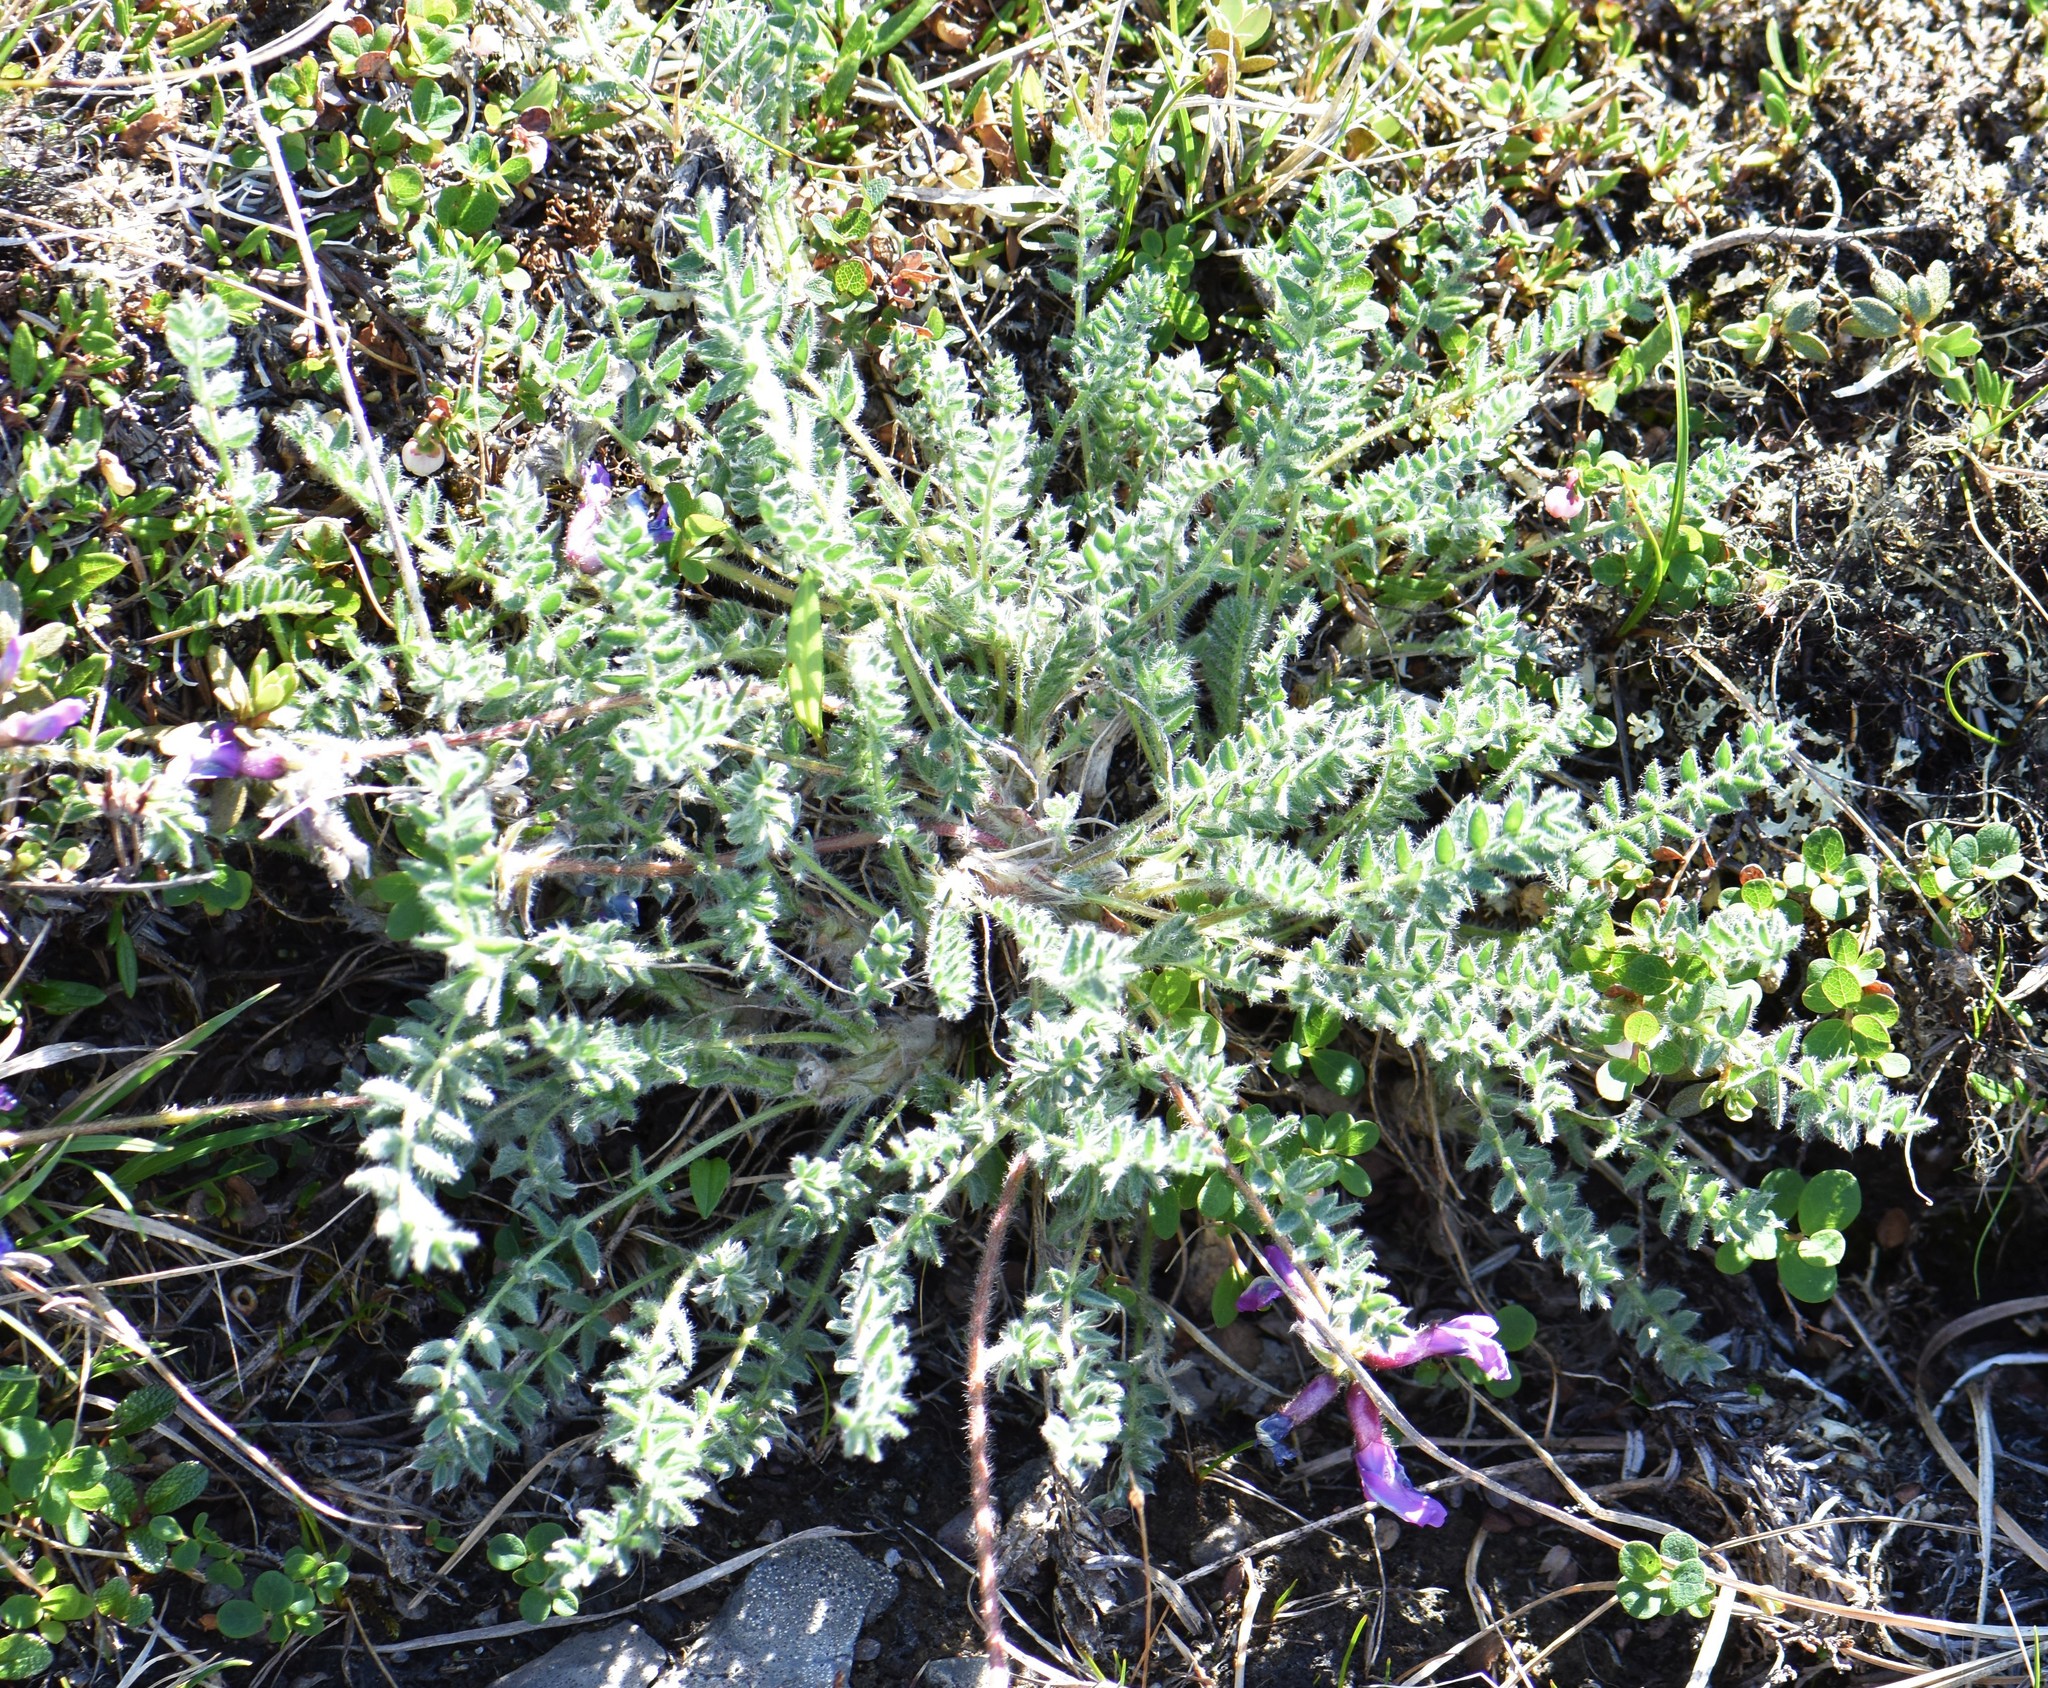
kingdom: Plantae
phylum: Tracheophyta
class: Magnoliopsida
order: Fabales
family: Fabaceae
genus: Oxytropis
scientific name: Oxytropis arctica
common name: Arctic locoweed
